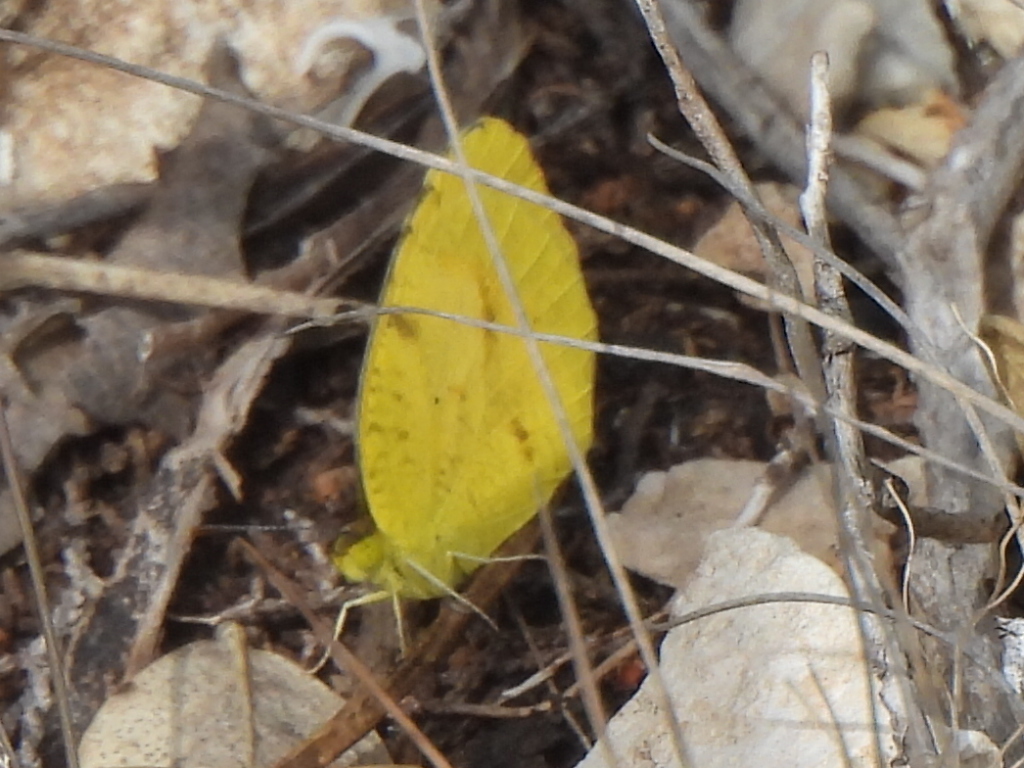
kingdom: Animalia
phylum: Arthropoda
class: Insecta
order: Lepidoptera
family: Pieridae
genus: Abaeis
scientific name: Abaeis nicippe
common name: Sleepy orange
